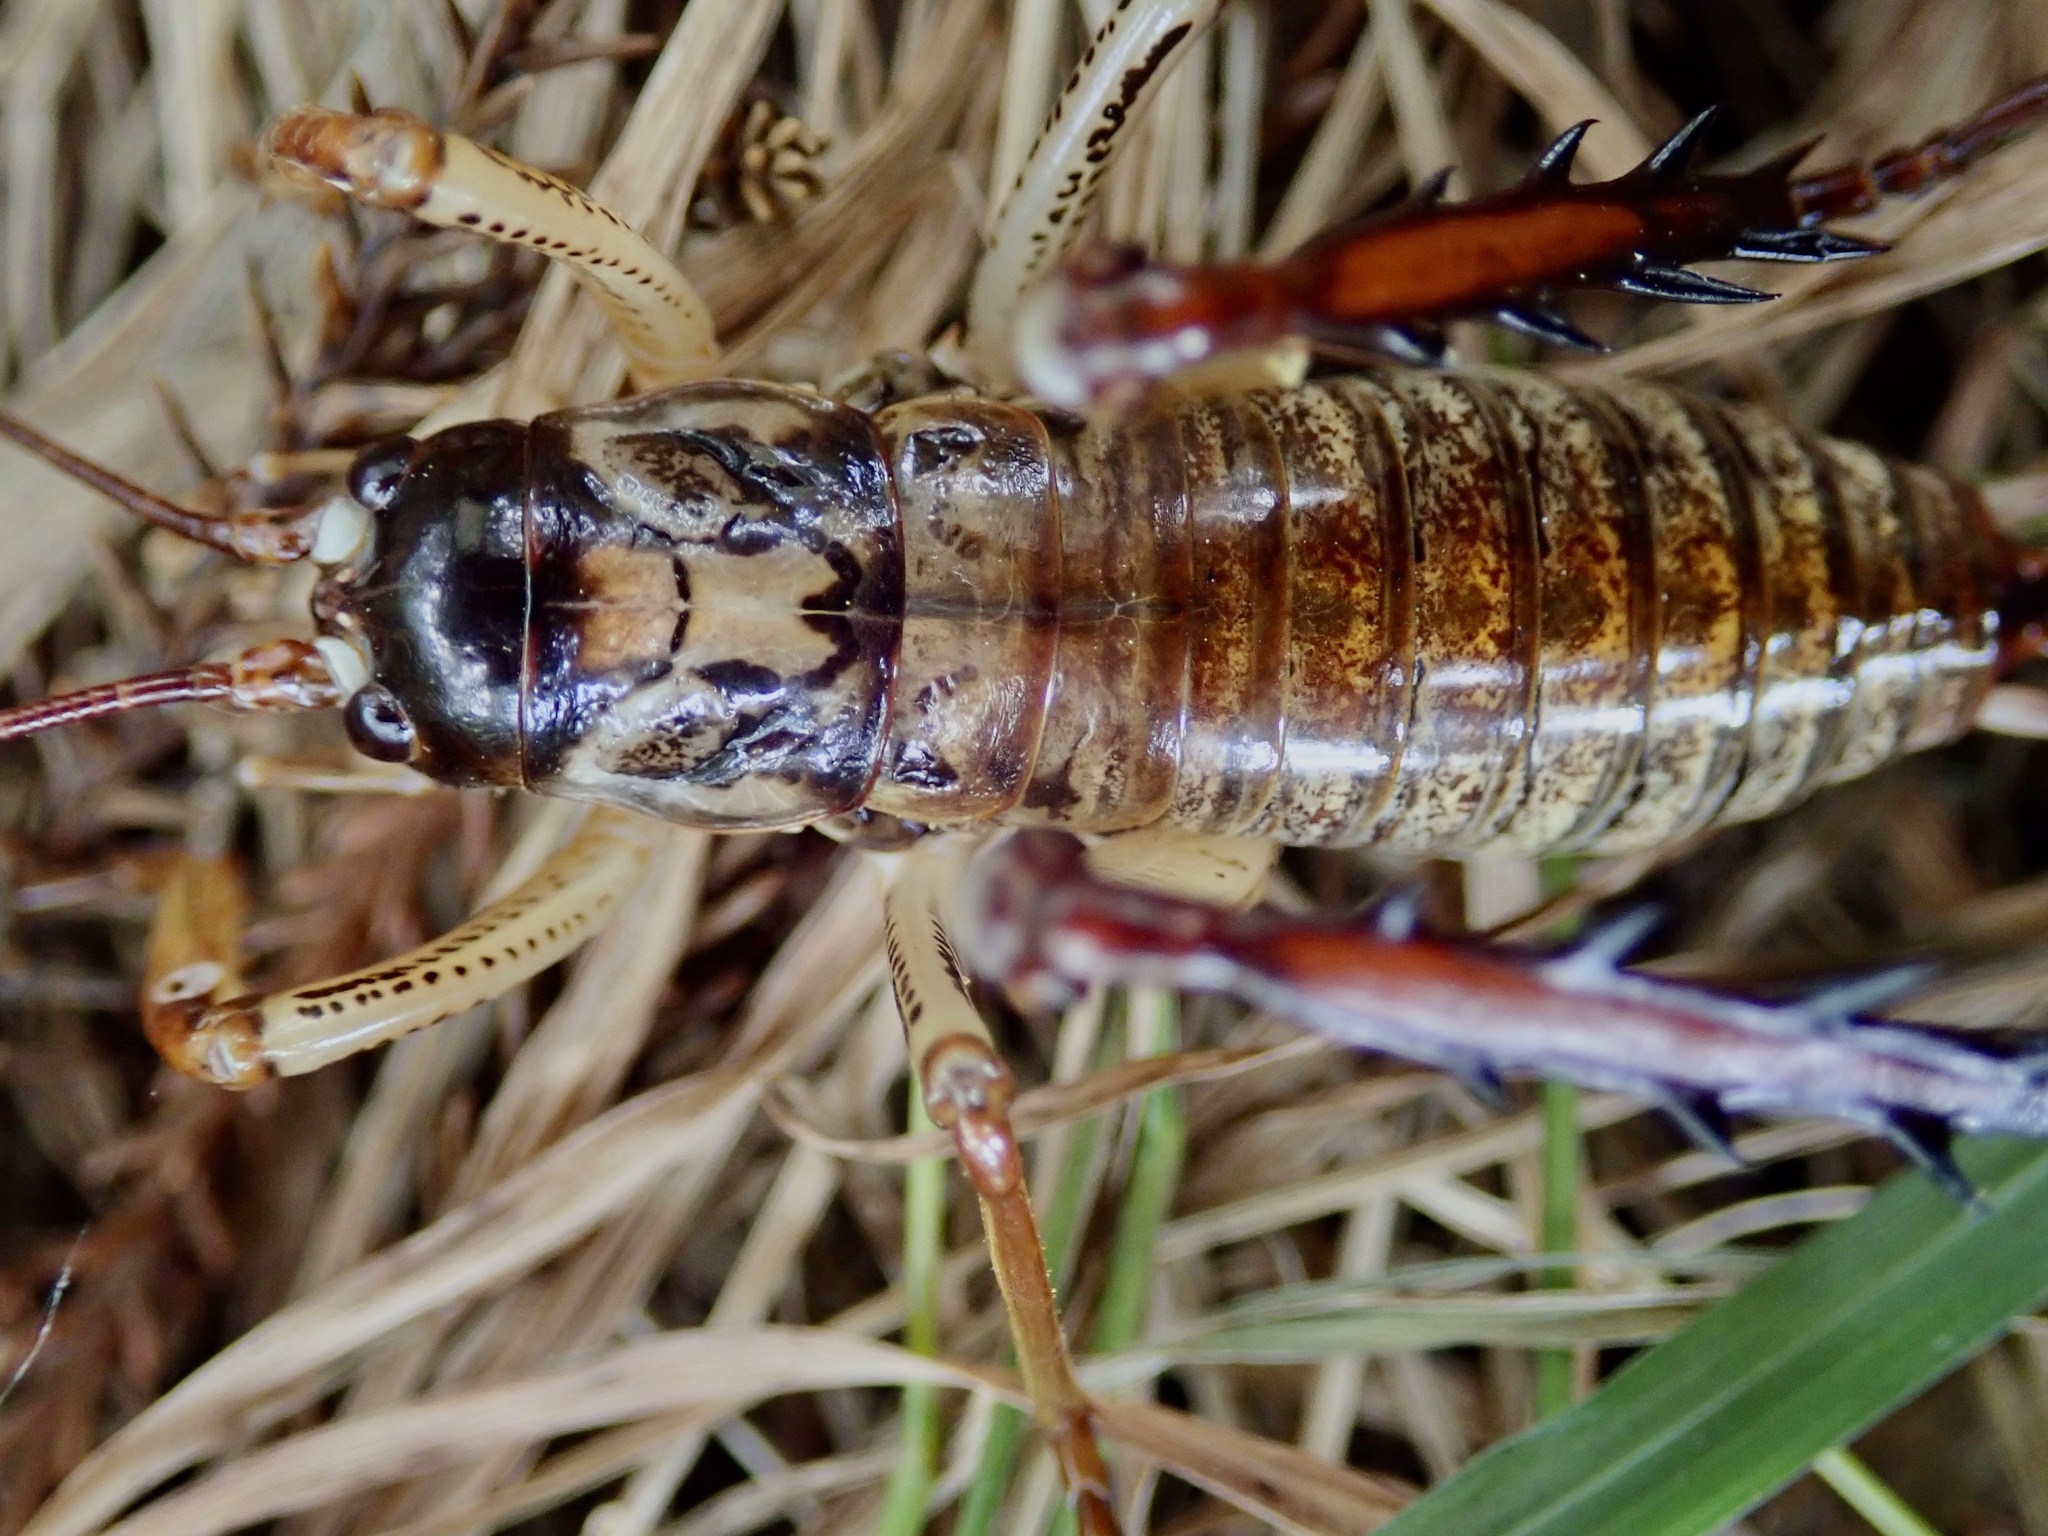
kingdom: Animalia
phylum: Arthropoda
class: Insecta
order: Orthoptera
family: Anostostomatidae
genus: Hemideina
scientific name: Hemideina thoracica
